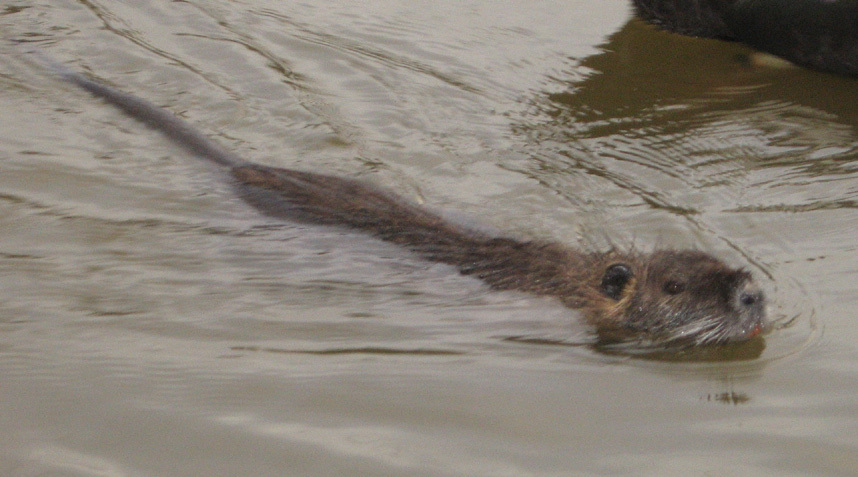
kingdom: Animalia
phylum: Chordata
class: Mammalia
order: Rodentia
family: Myocastoridae
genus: Myocastor
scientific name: Myocastor coypus
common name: Coypu
